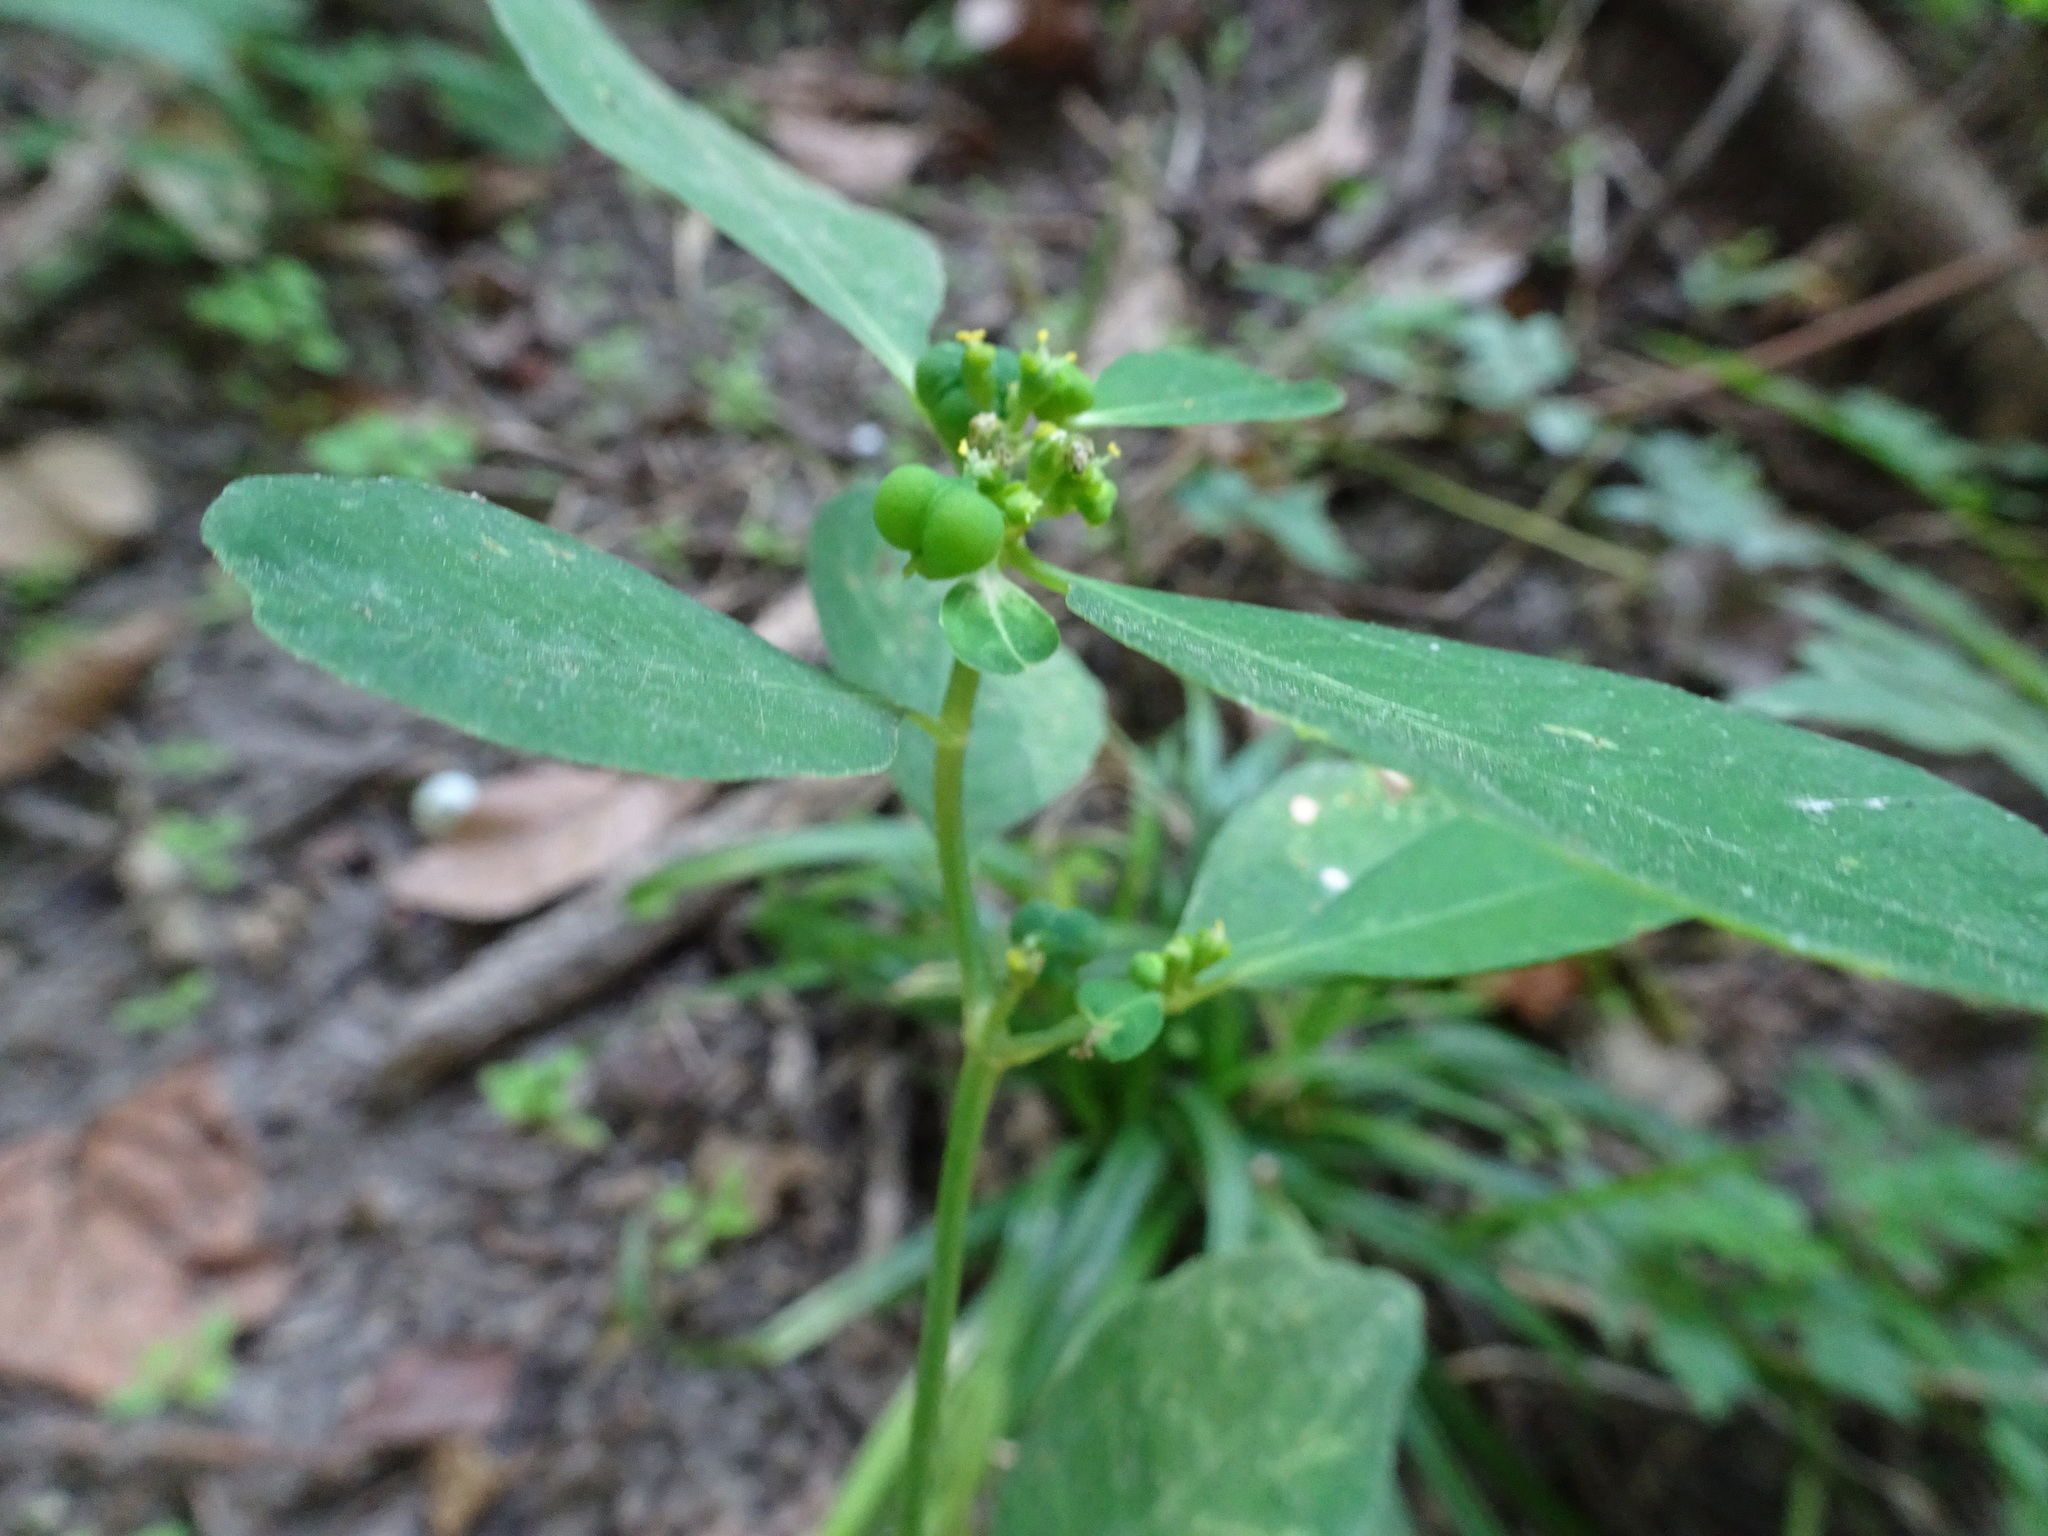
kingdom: Plantae
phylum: Tracheophyta
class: Magnoliopsida
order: Malpighiales
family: Euphorbiaceae
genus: Euphorbia
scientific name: Euphorbia heterophylla
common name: Mexican fireplant
